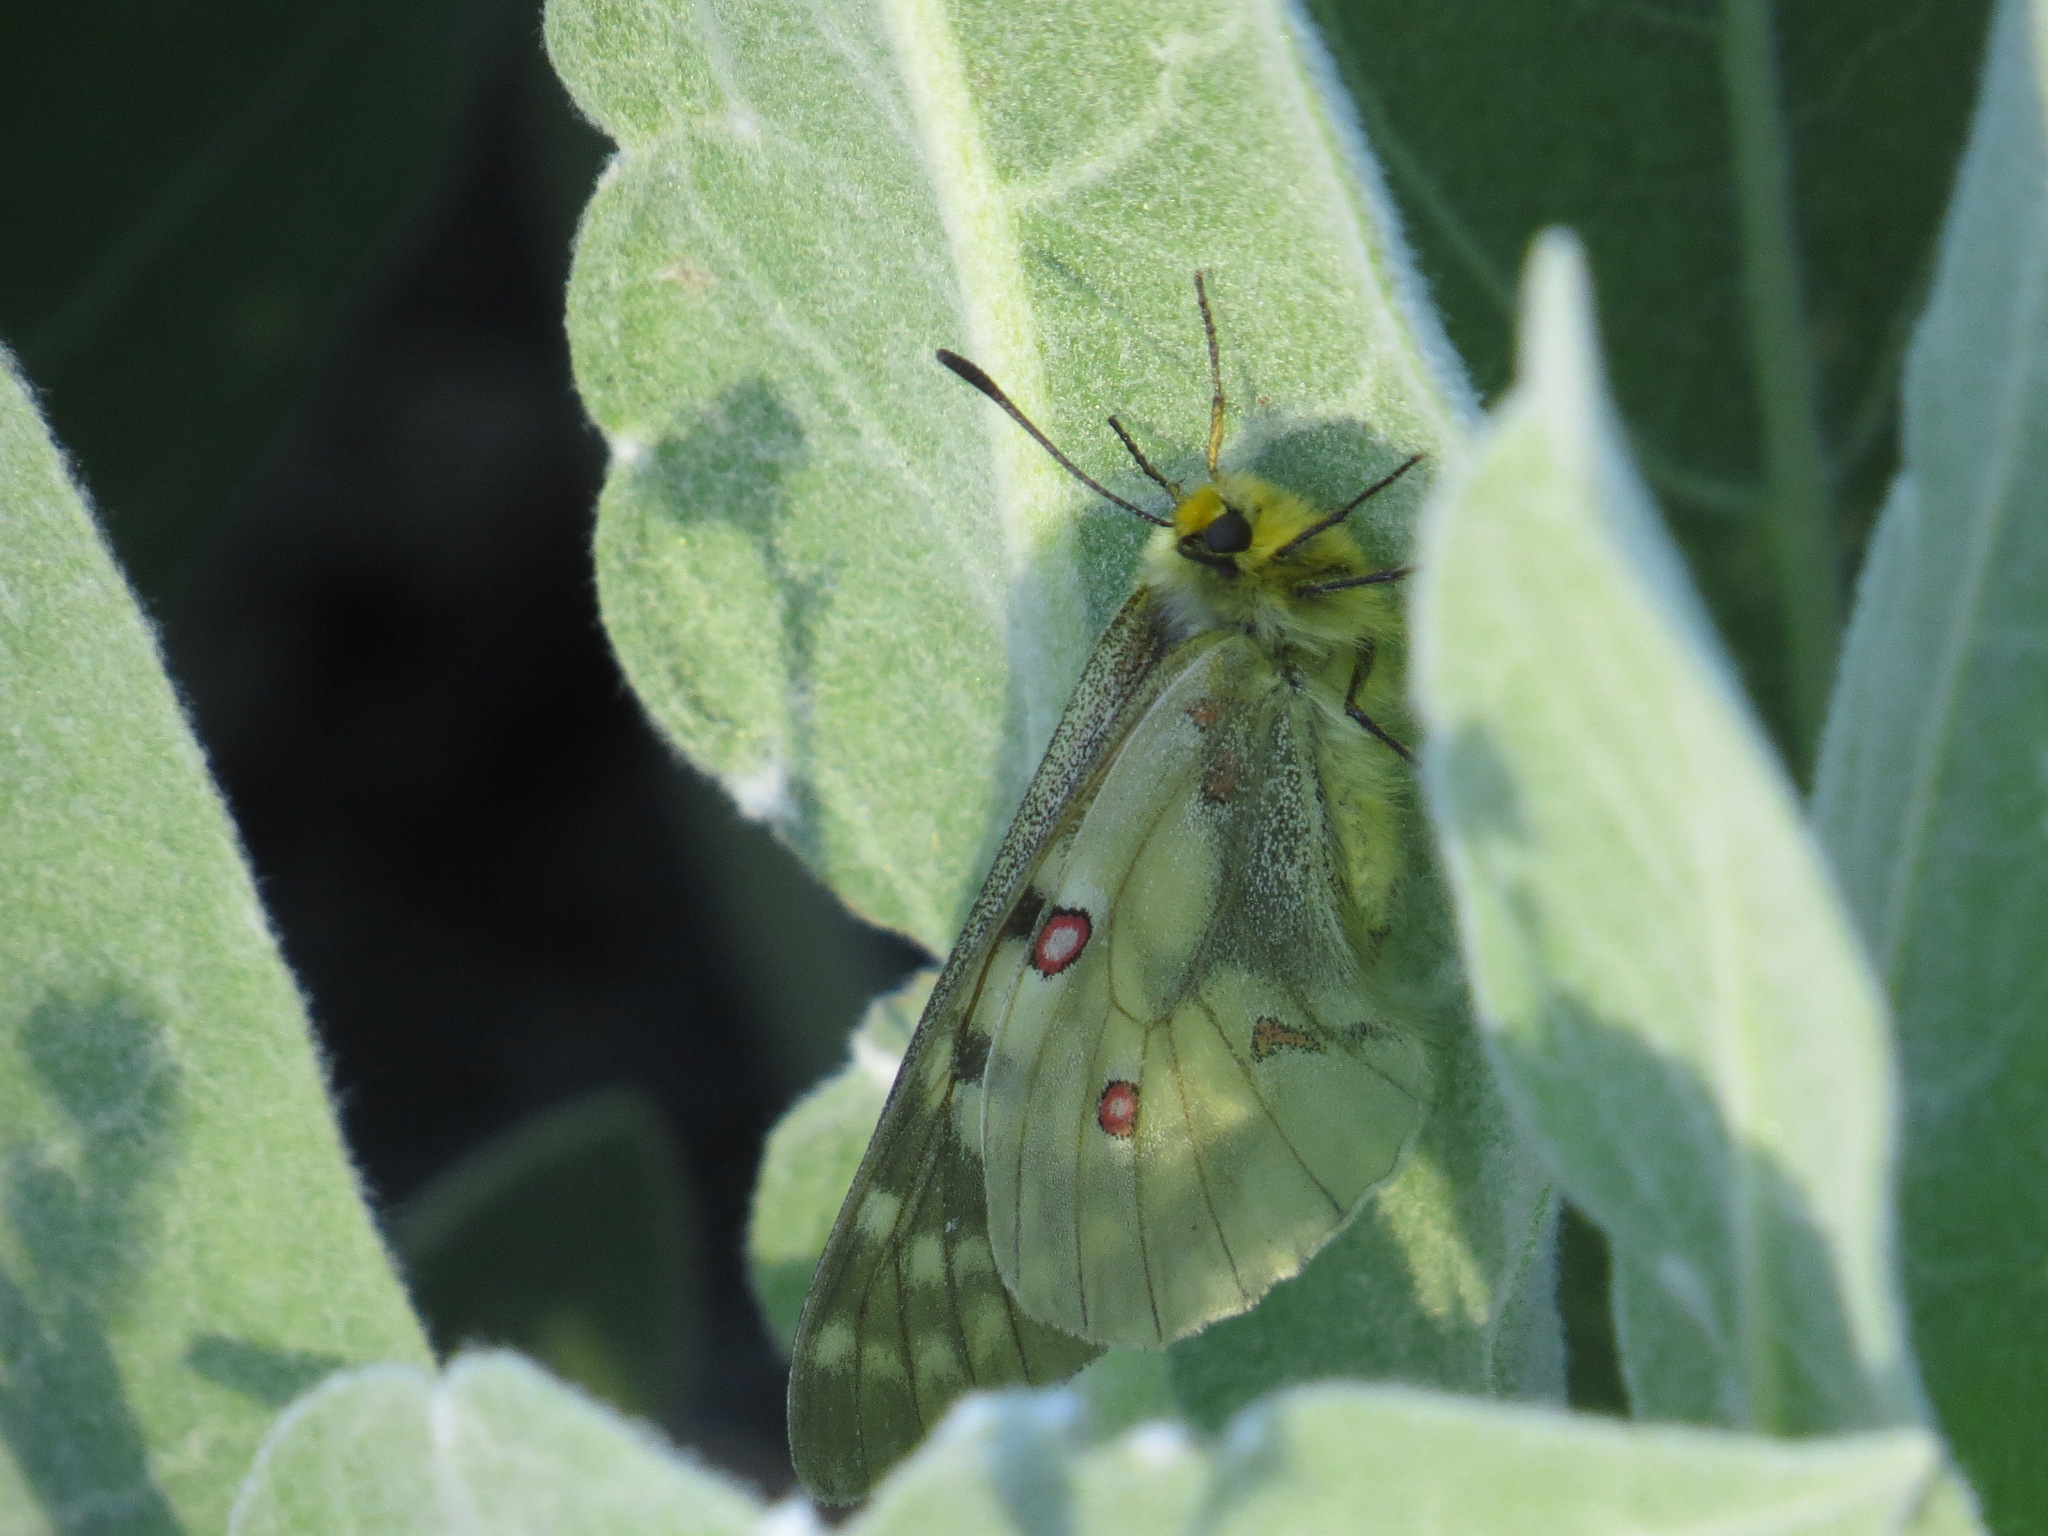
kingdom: Animalia
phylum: Arthropoda
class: Insecta
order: Lepidoptera
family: Papilionidae
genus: Parnassius
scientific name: Parnassius clodius
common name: American apollo
